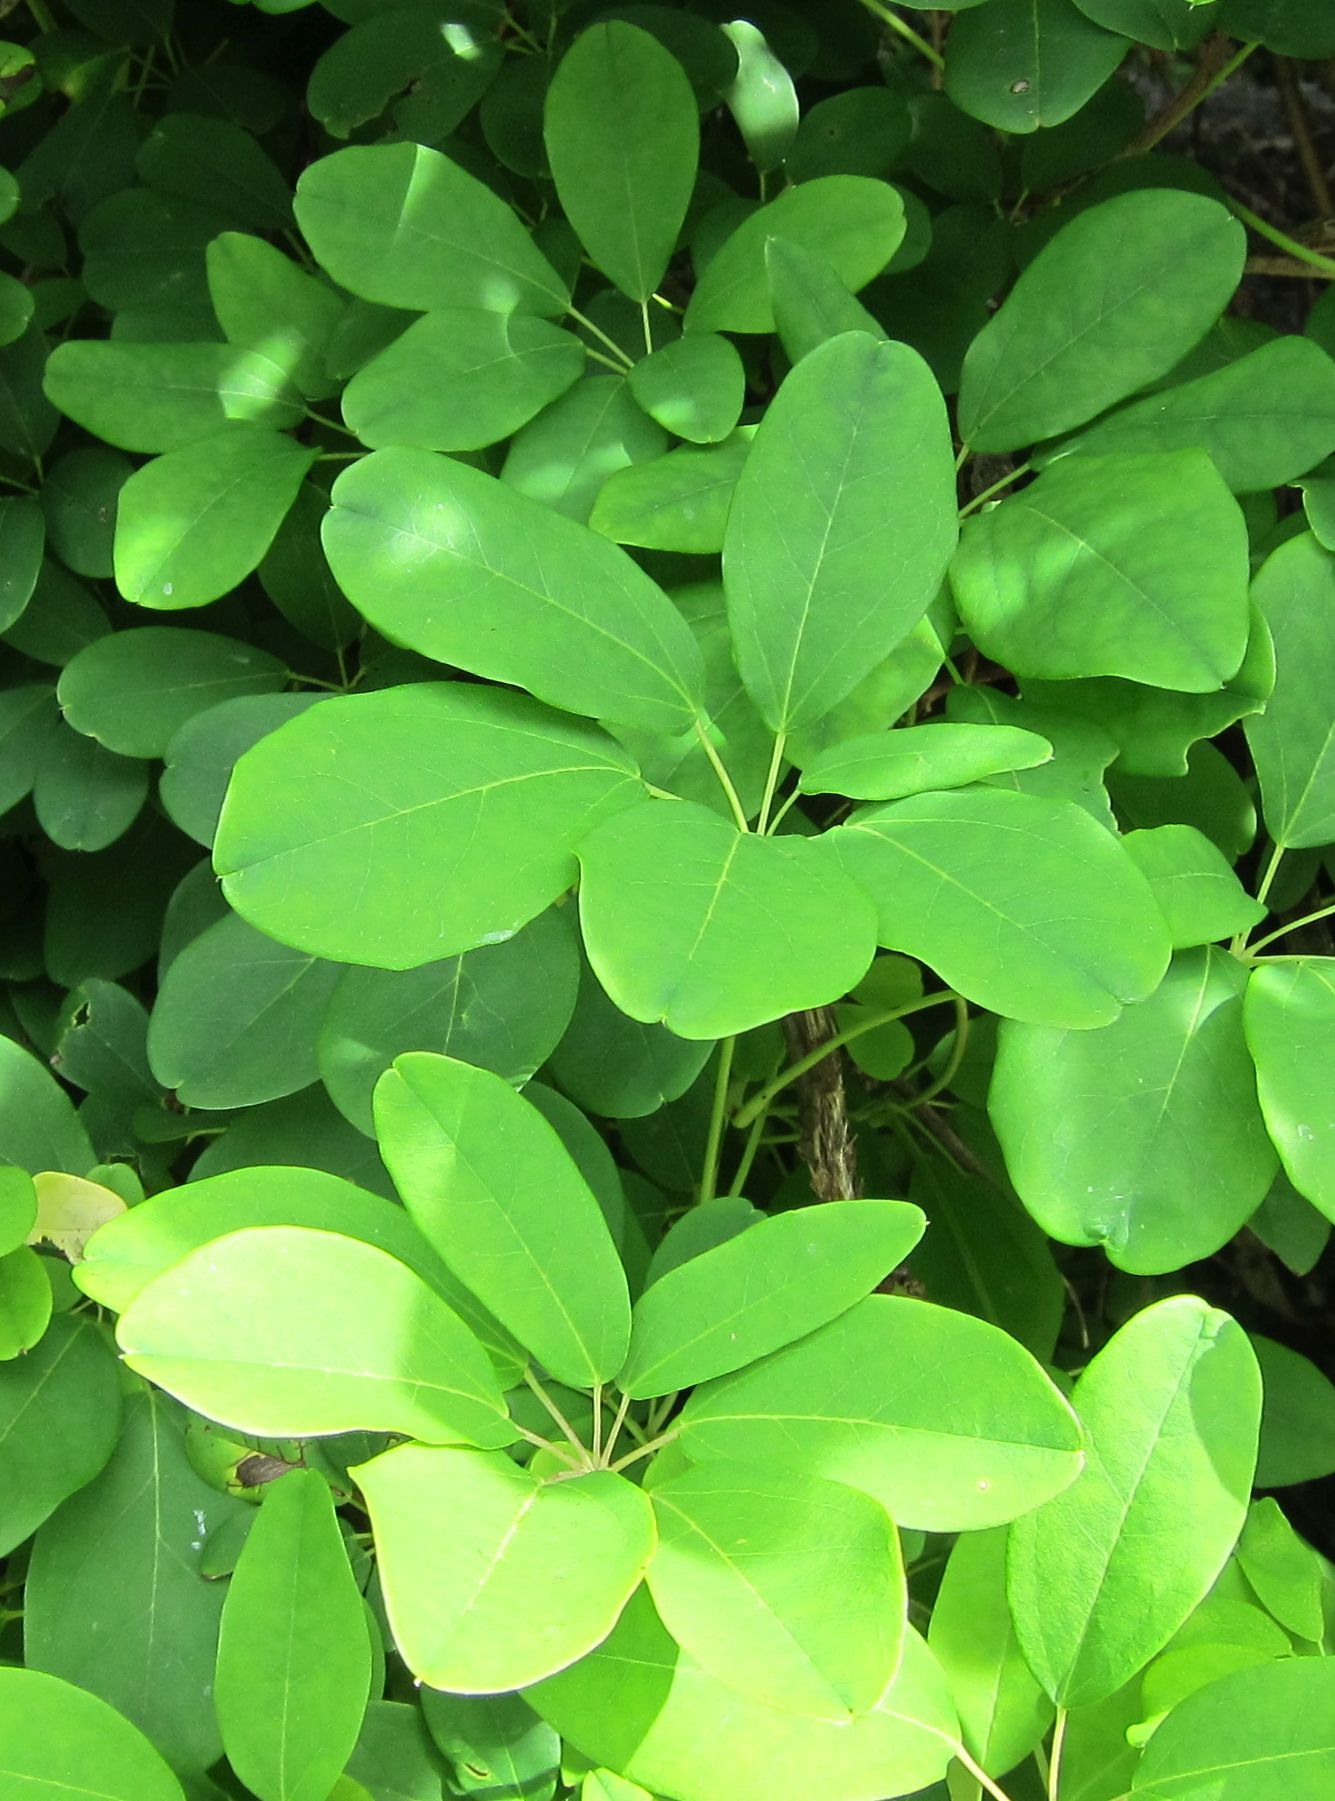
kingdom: Plantae
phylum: Tracheophyta
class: Magnoliopsida
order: Ranunculales
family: Lardizabalaceae
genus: Akebia
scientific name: Akebia quinata
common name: Five-leaf akebia
